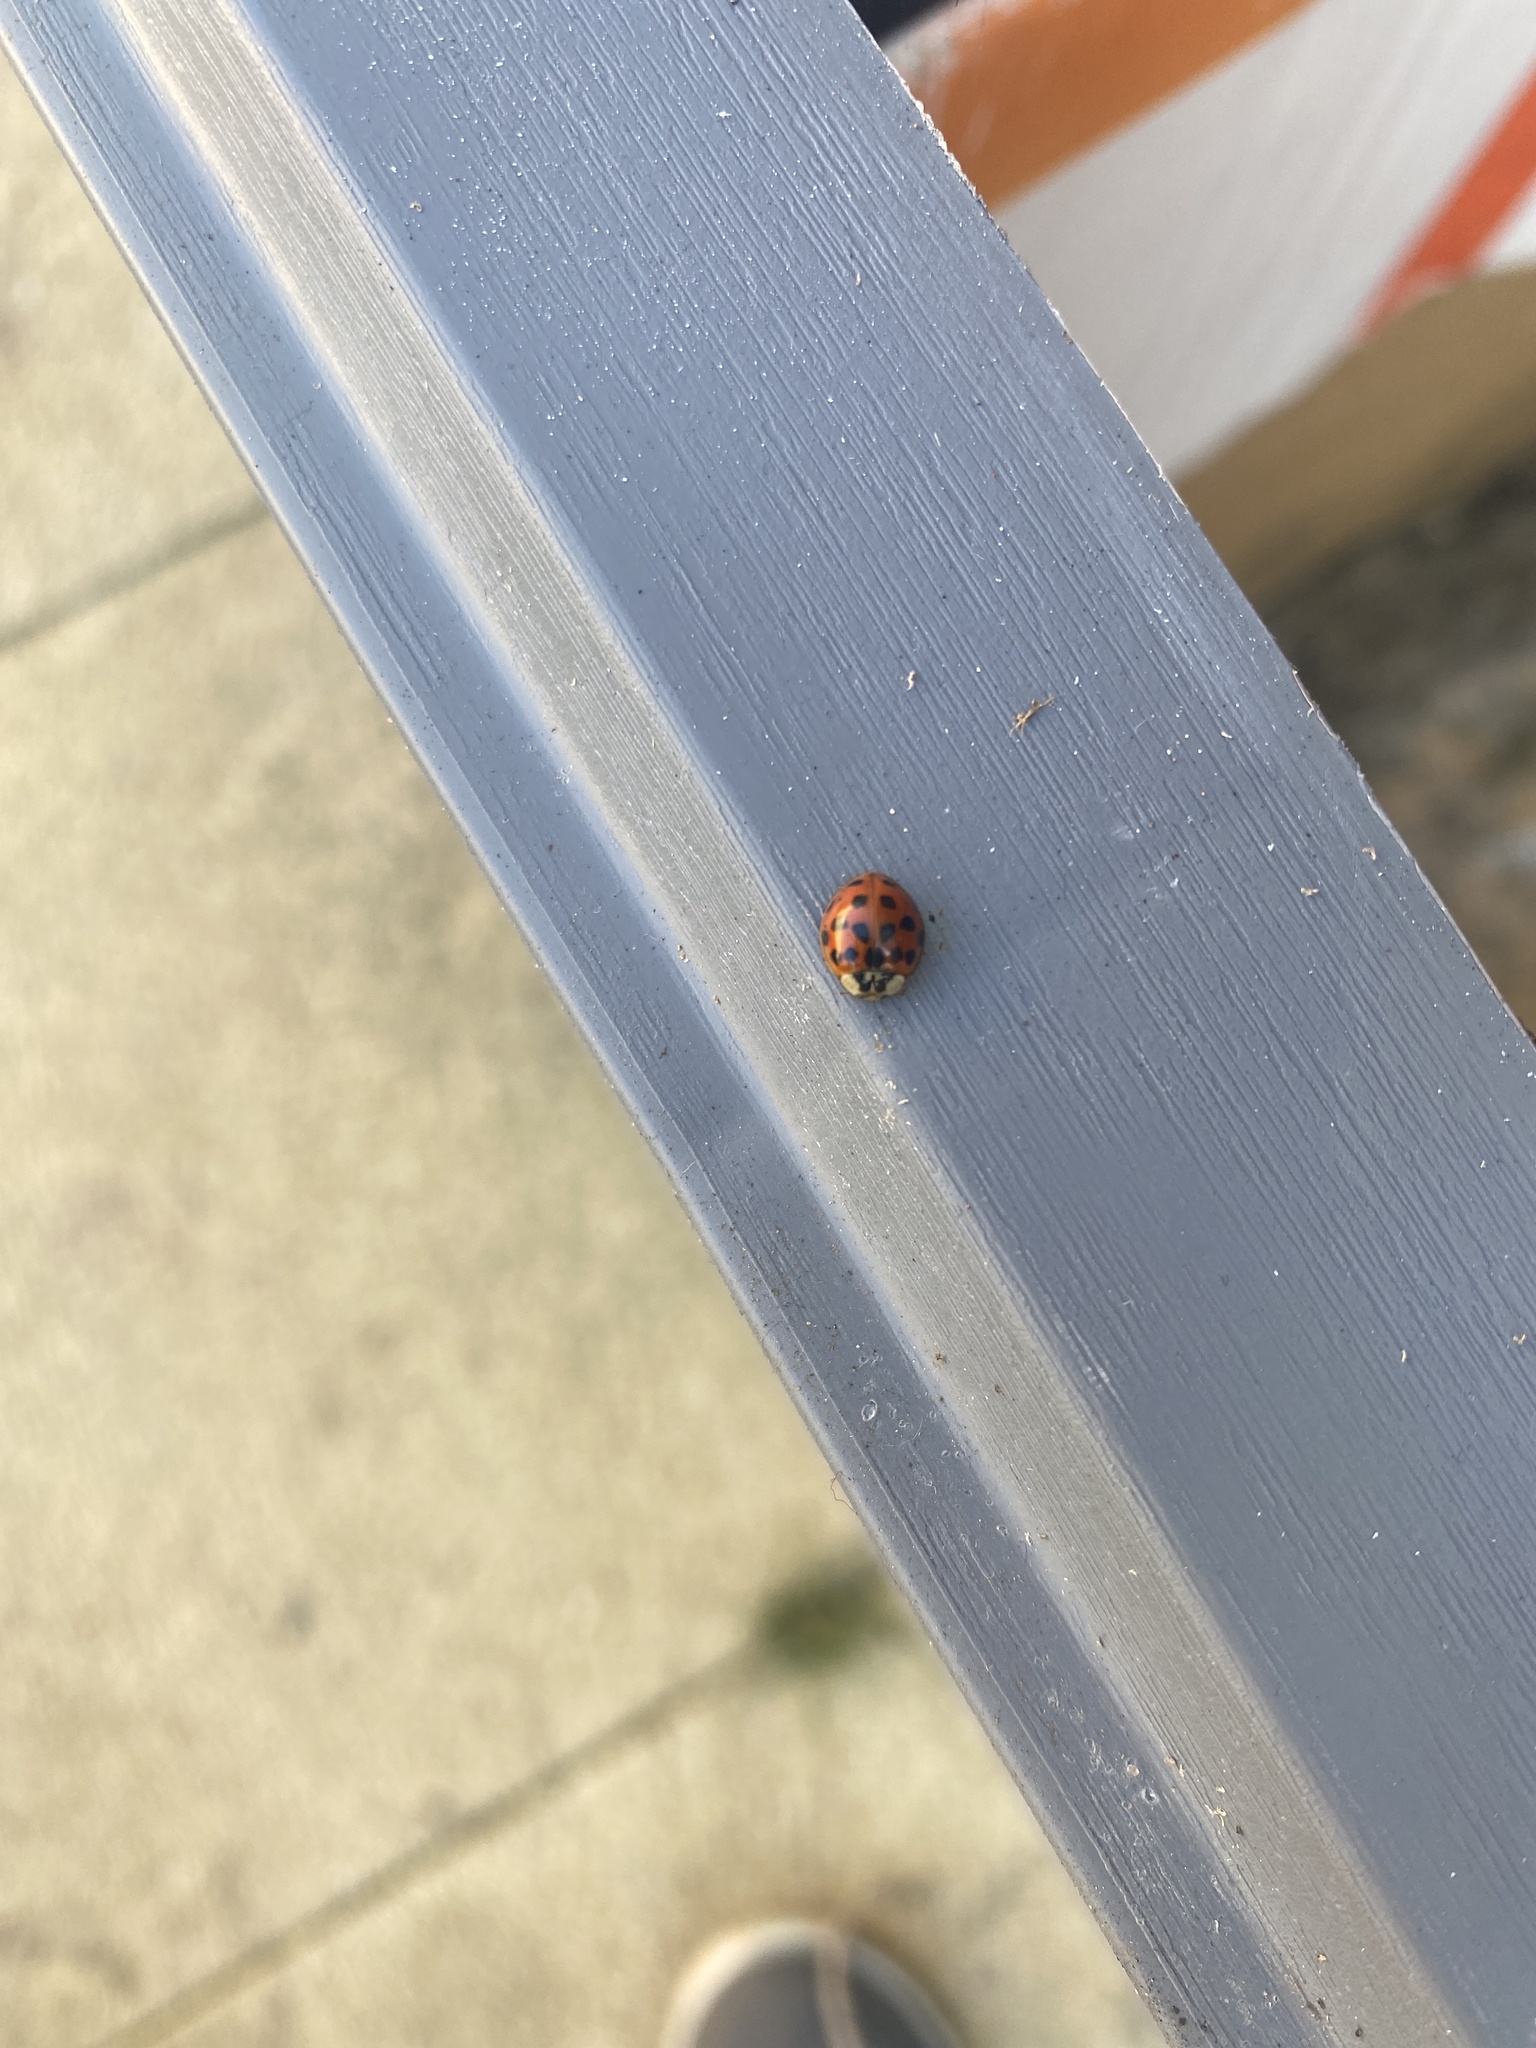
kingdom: Animalia
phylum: Arthropoda
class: Insecta
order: Coleoptera
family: Coccinellidae
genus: Harmonia
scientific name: Harmonia axyridis
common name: Harlequin ladybird
